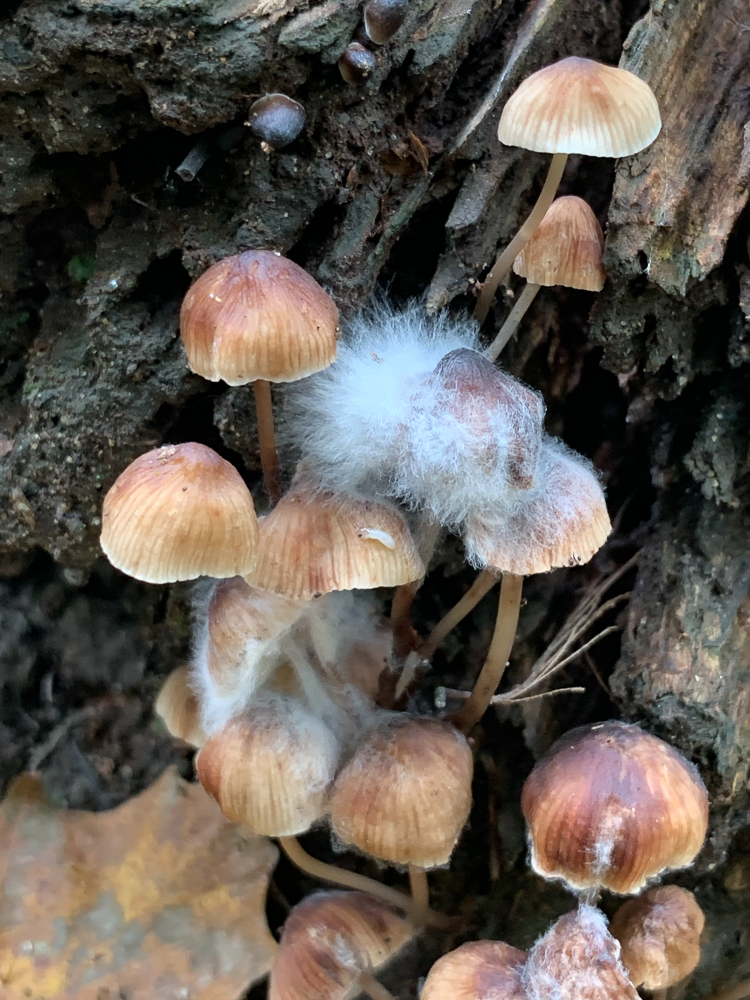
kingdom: Fungi
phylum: Mucoromycota
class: Mucoromycetes
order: Mucorales
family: Phycomycetaceae
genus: Spinellus
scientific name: Spinellus fusiger
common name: Bonnet mould
